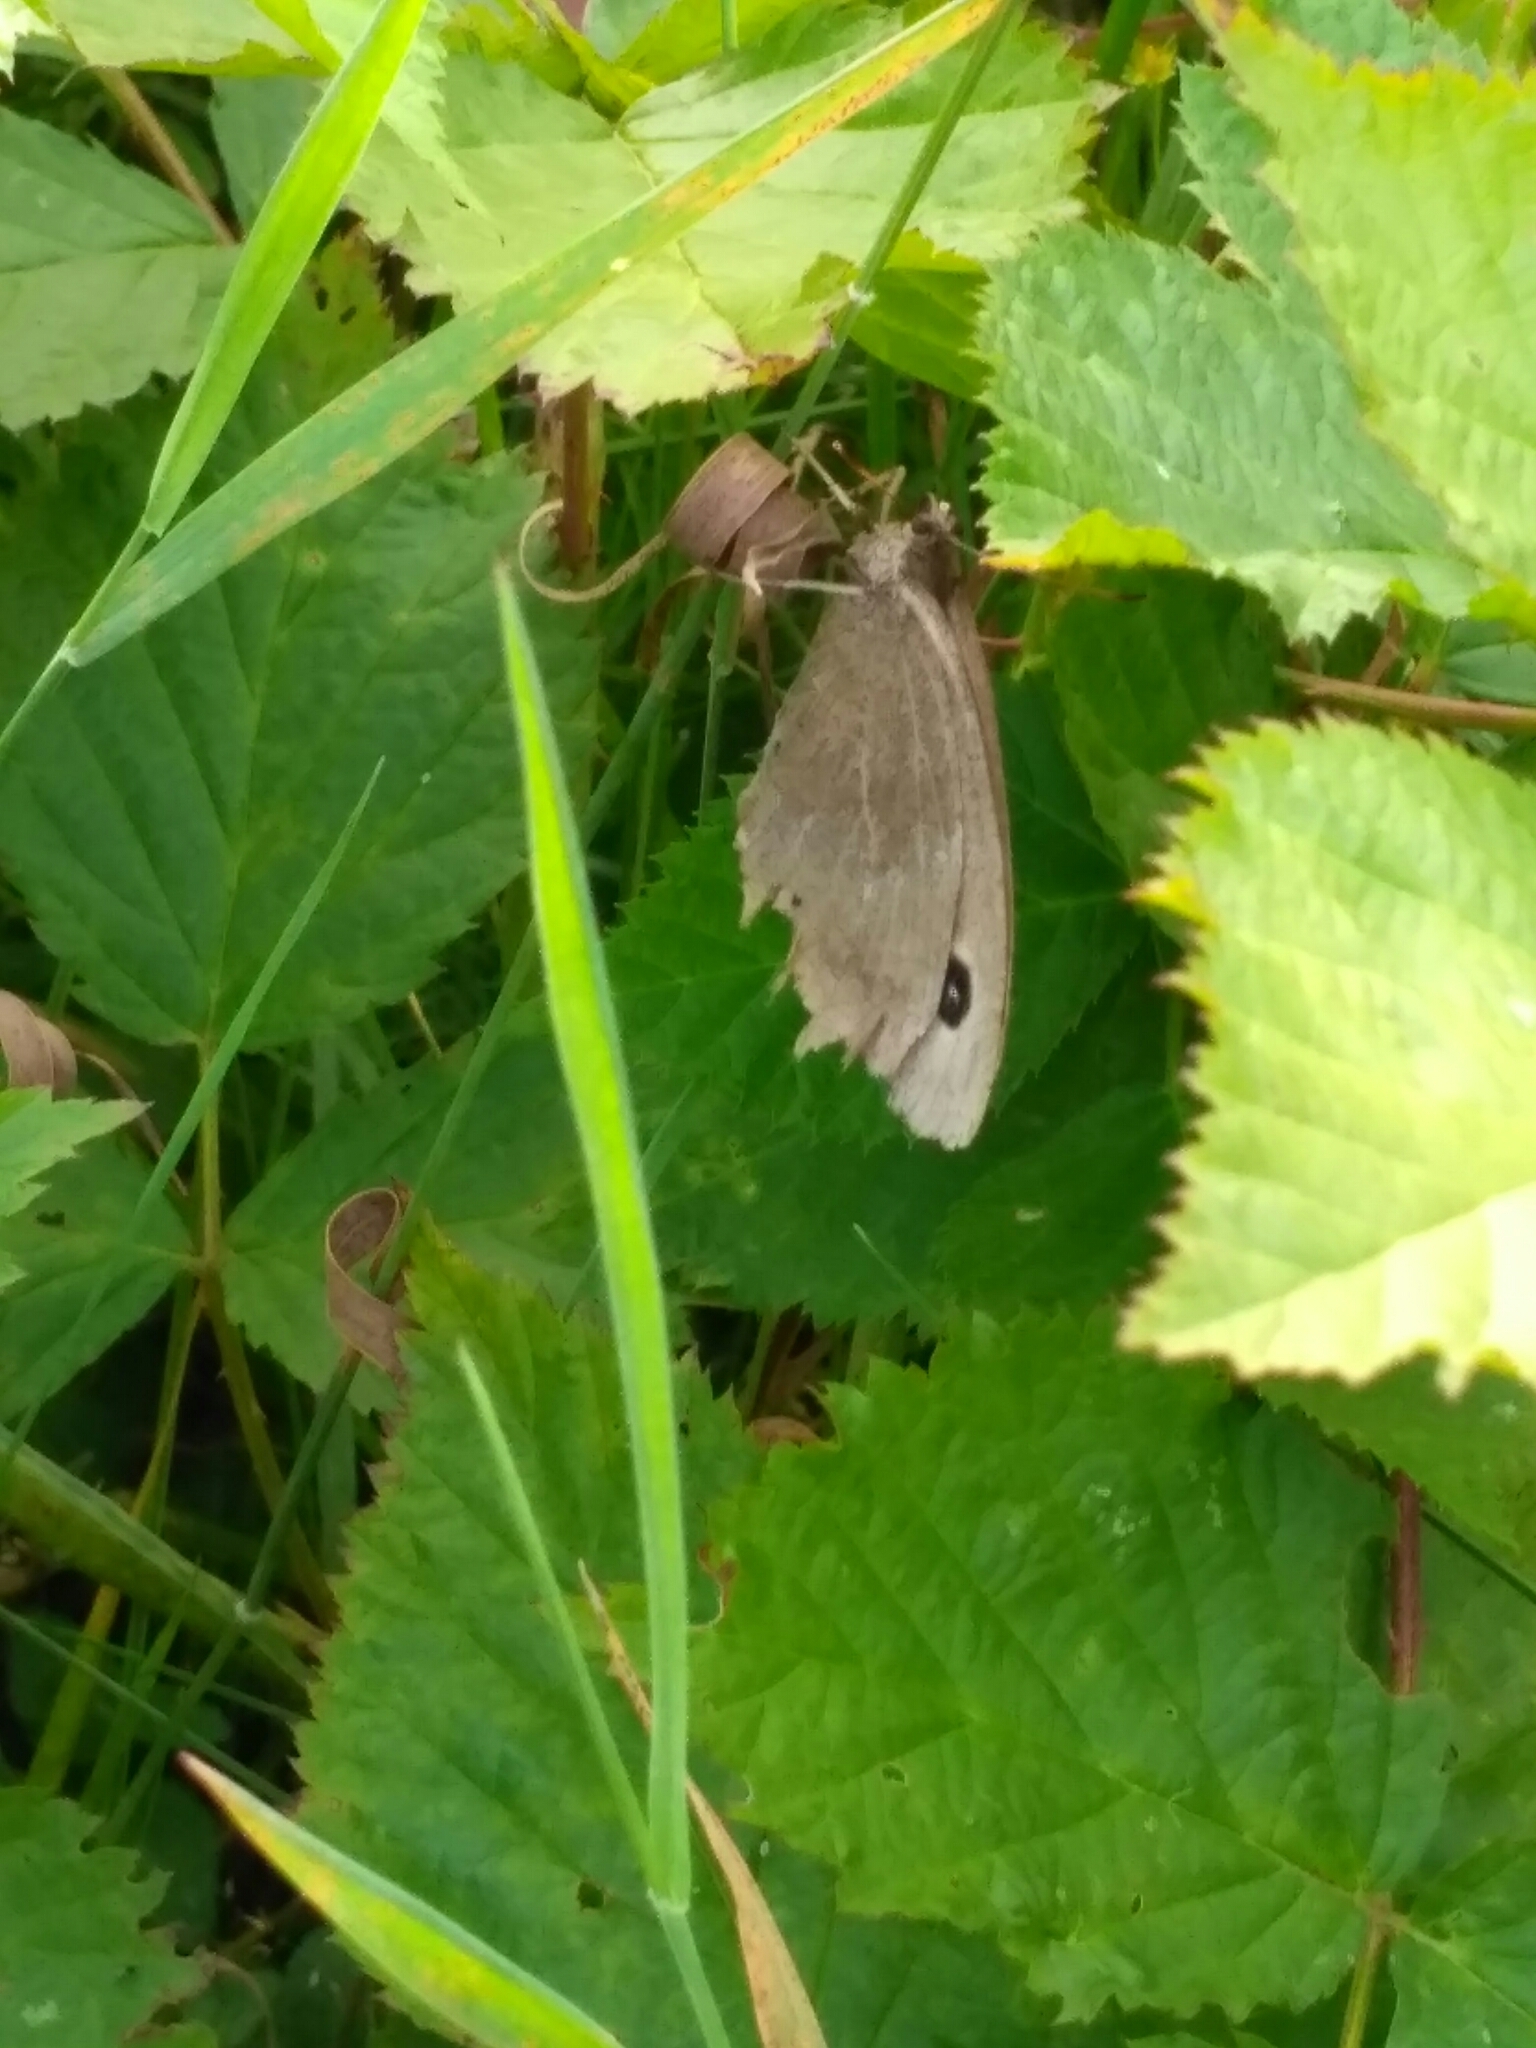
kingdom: Animalia
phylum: Arthropoda
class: Insecta
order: Lepidoptera
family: Nymphalidae
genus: Minois
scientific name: Minois dryas
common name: Dryad
